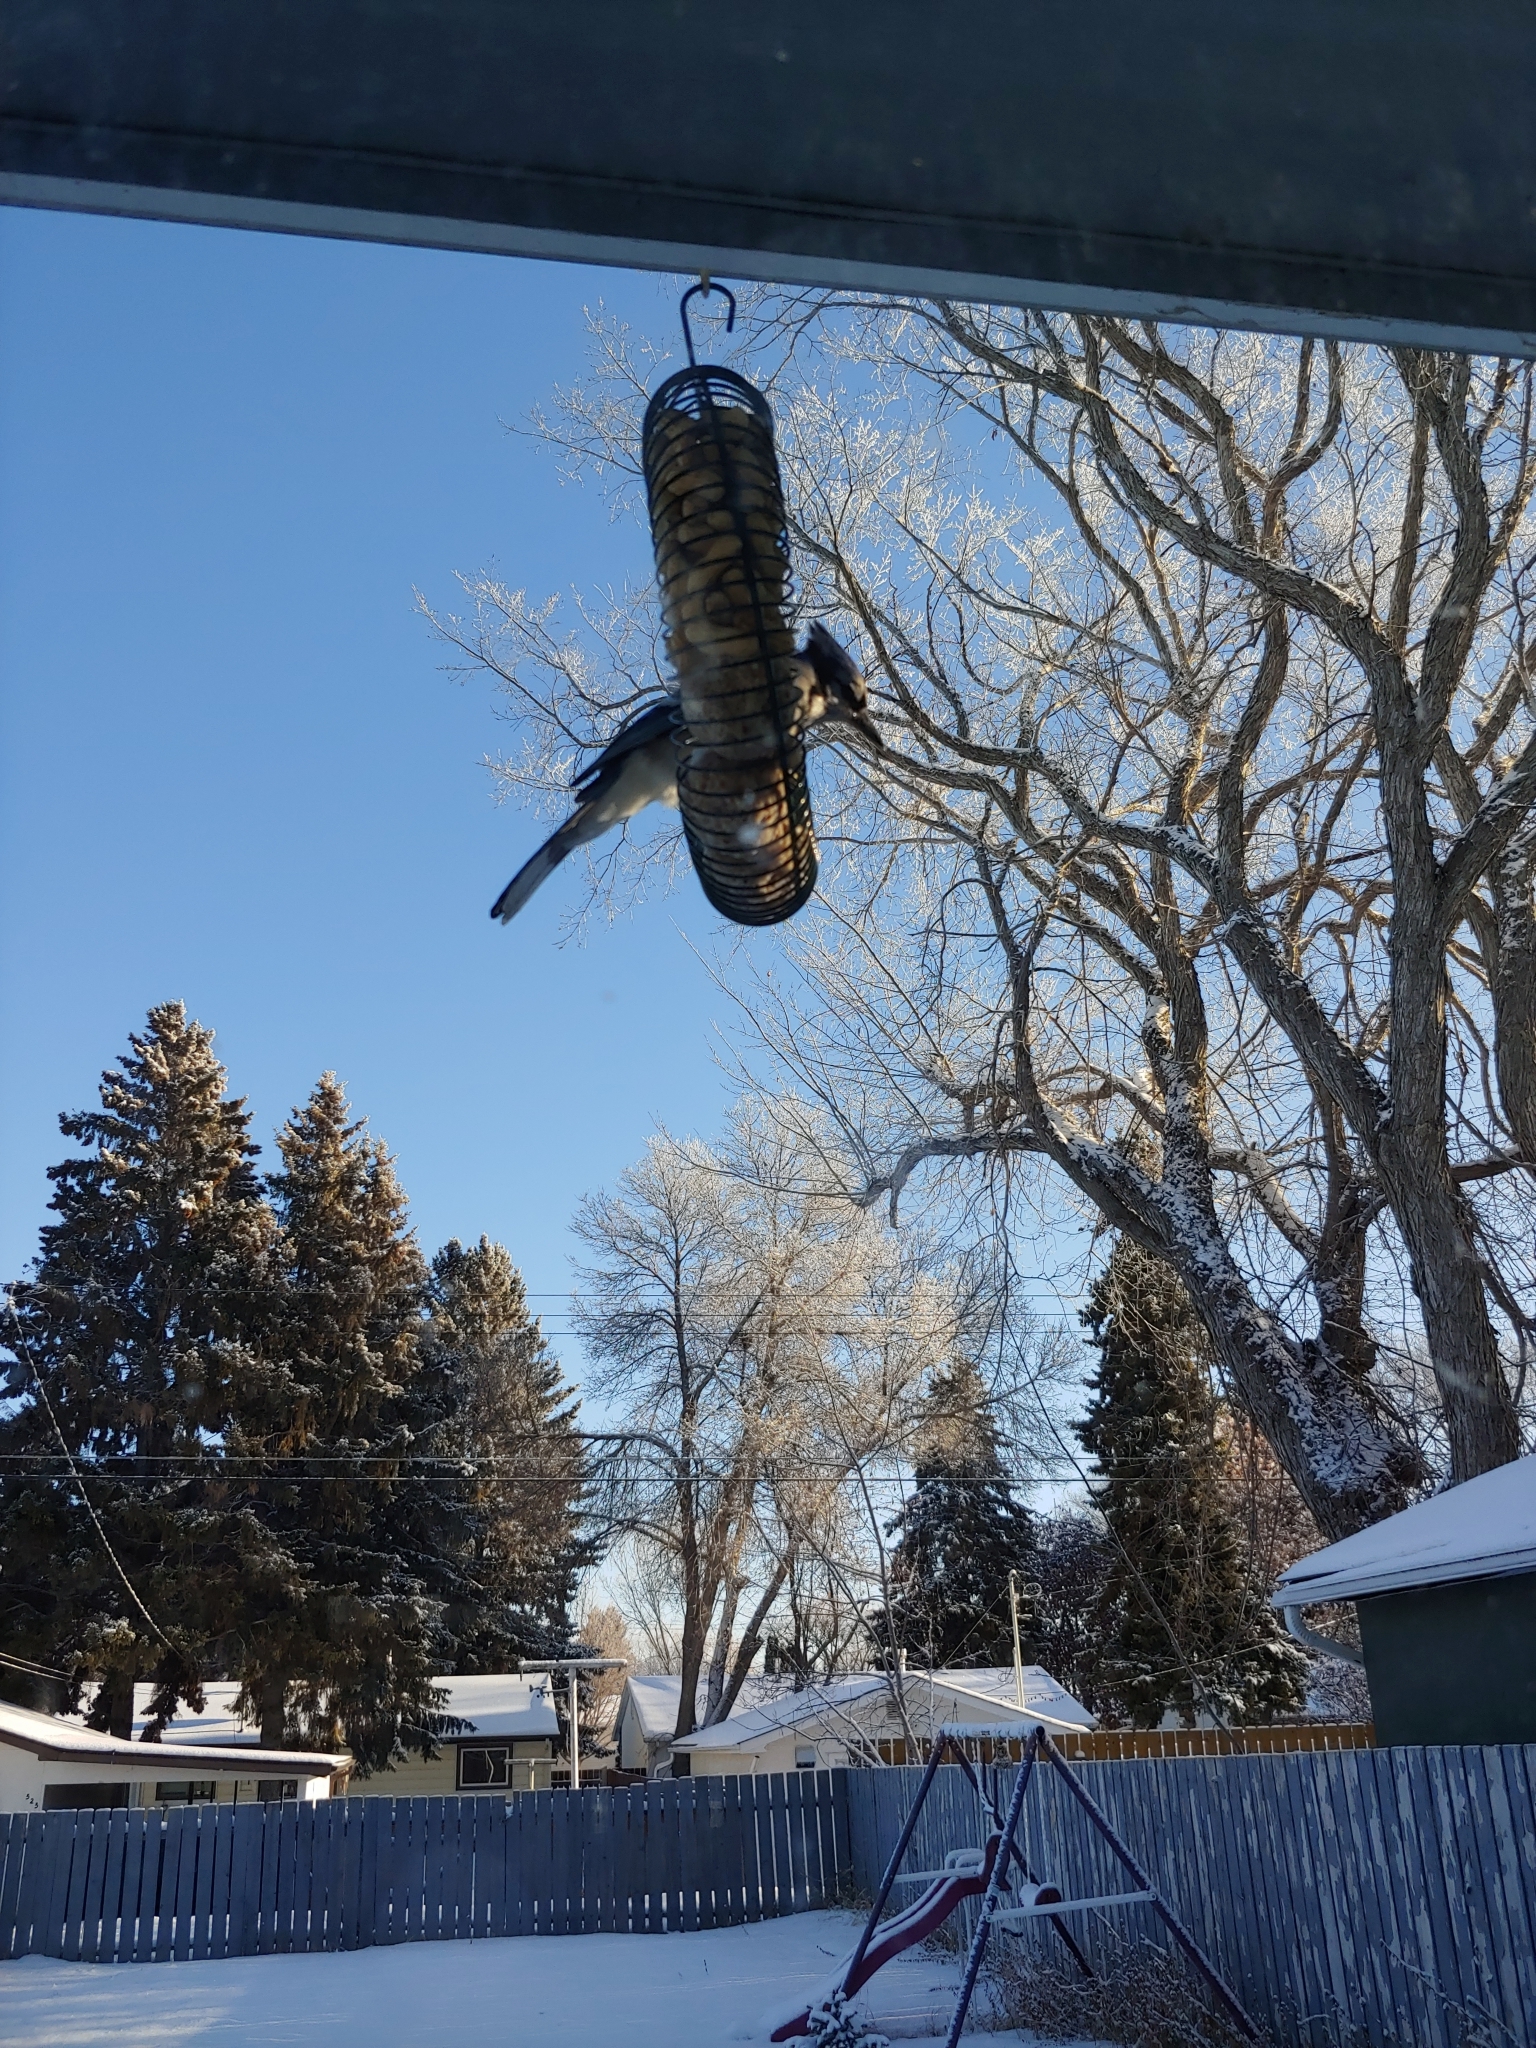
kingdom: Animalia
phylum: Chordata
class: Aves
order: Passeriformes
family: Corvidae
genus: Cyanocitta
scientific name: Cyanocitta cristata
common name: Blue jay
